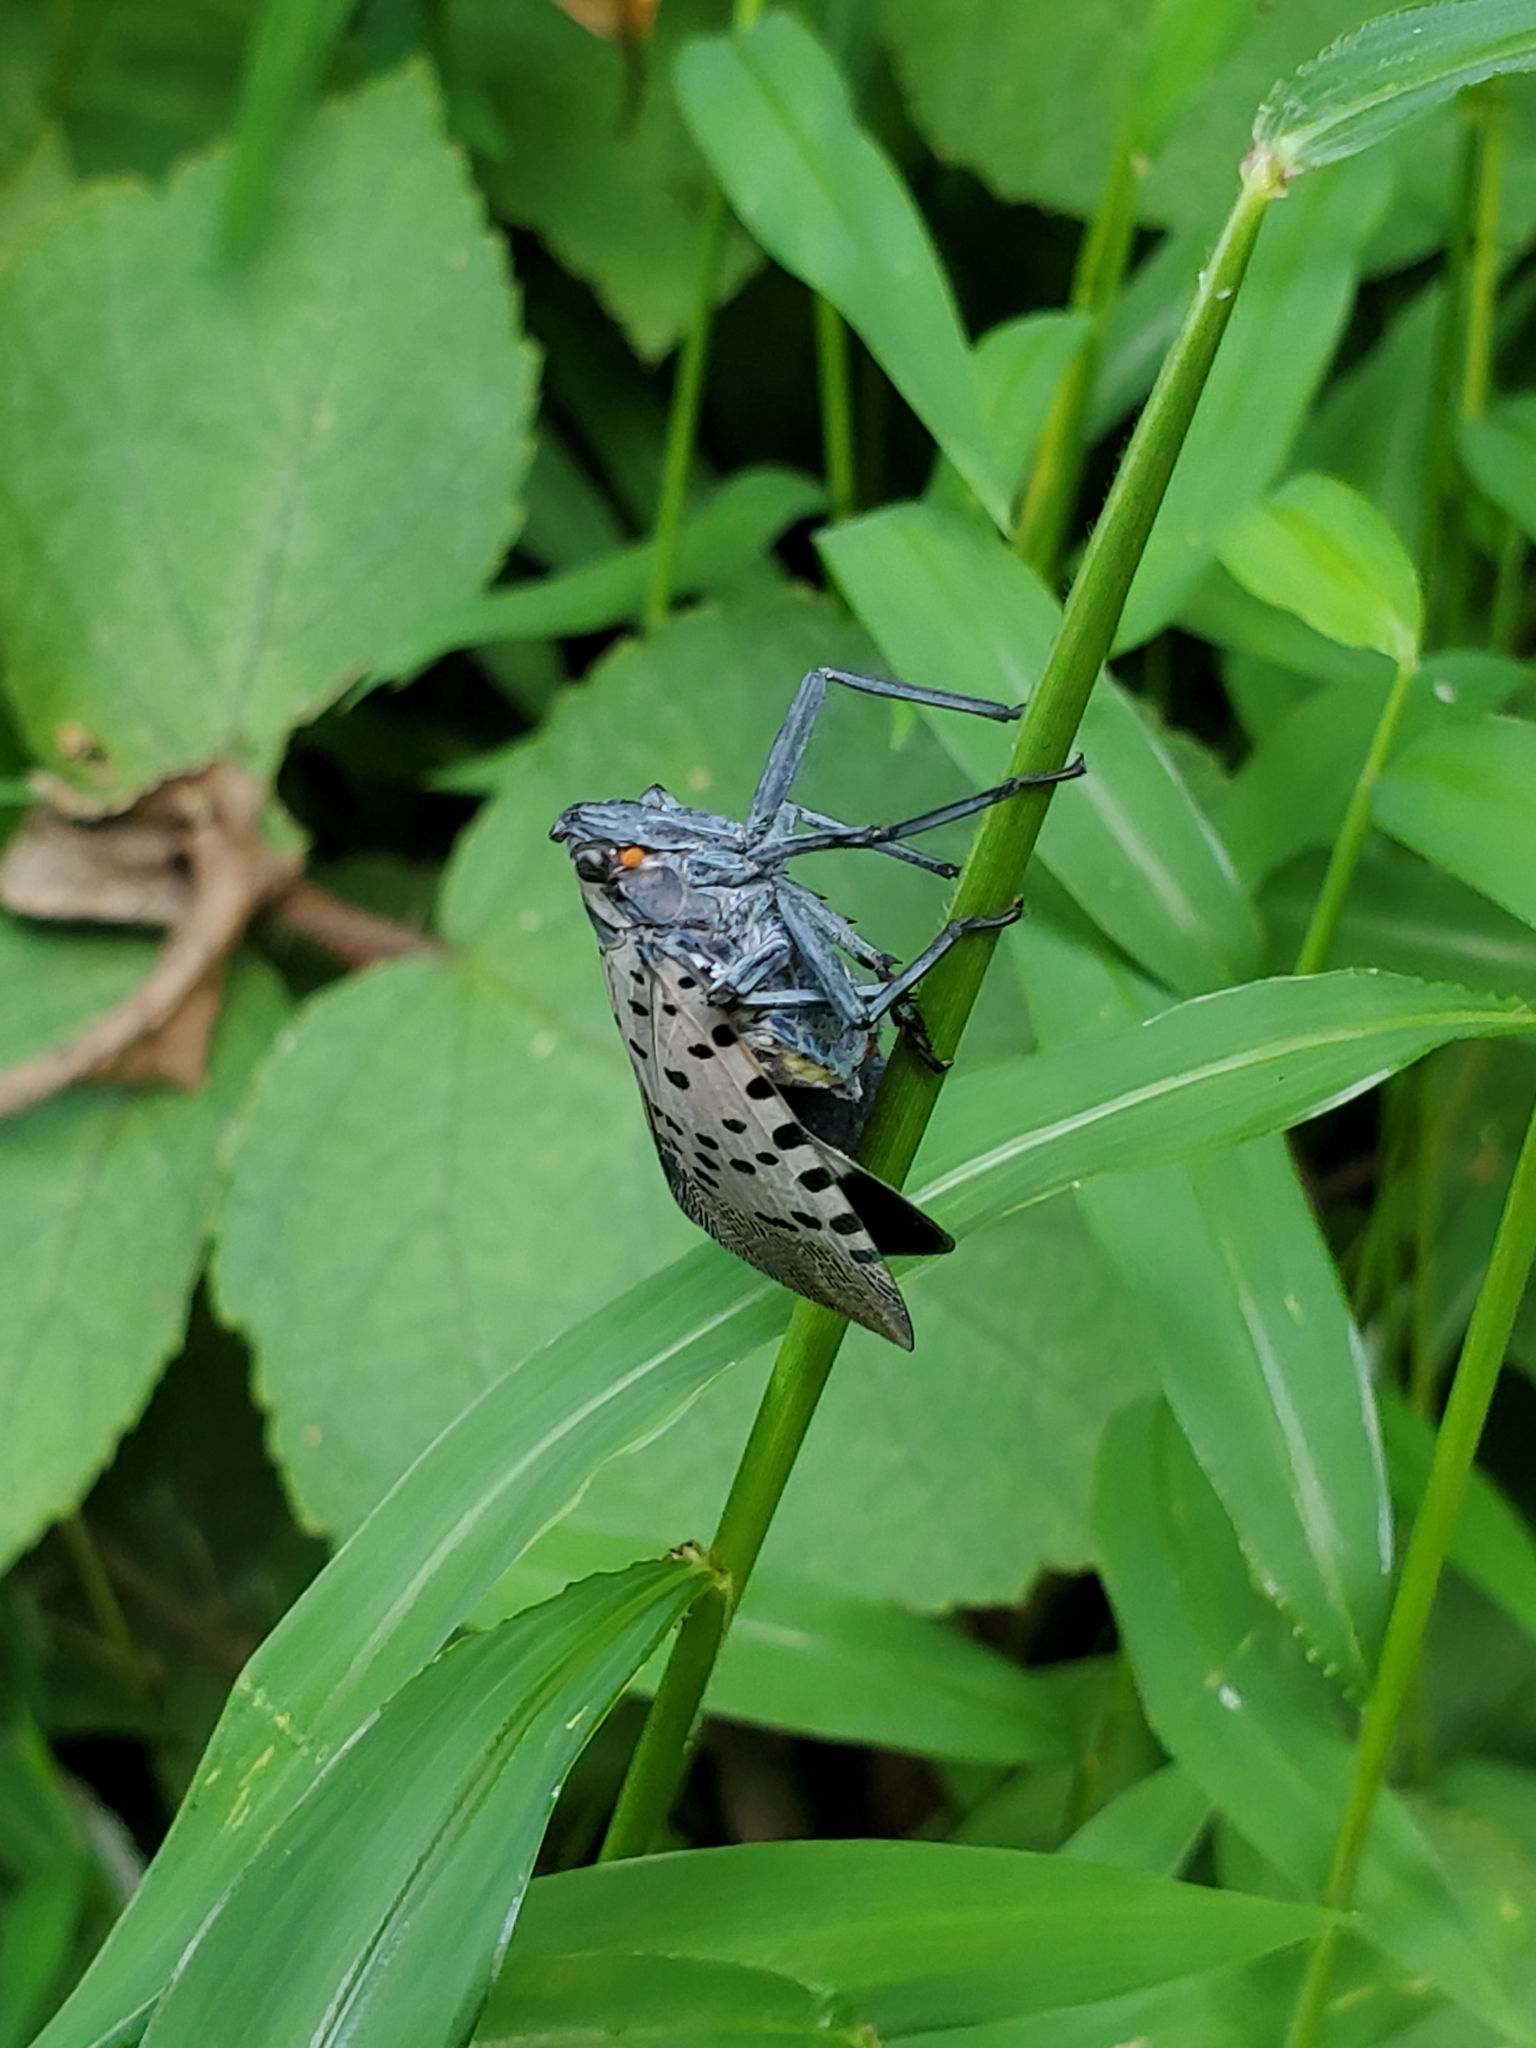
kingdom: Animalia
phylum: Arthropoda
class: Insecta
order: Hemiptera
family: Fulgoridae
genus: Lycorma
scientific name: Lycorma delicatula
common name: Spotted lanternfly
